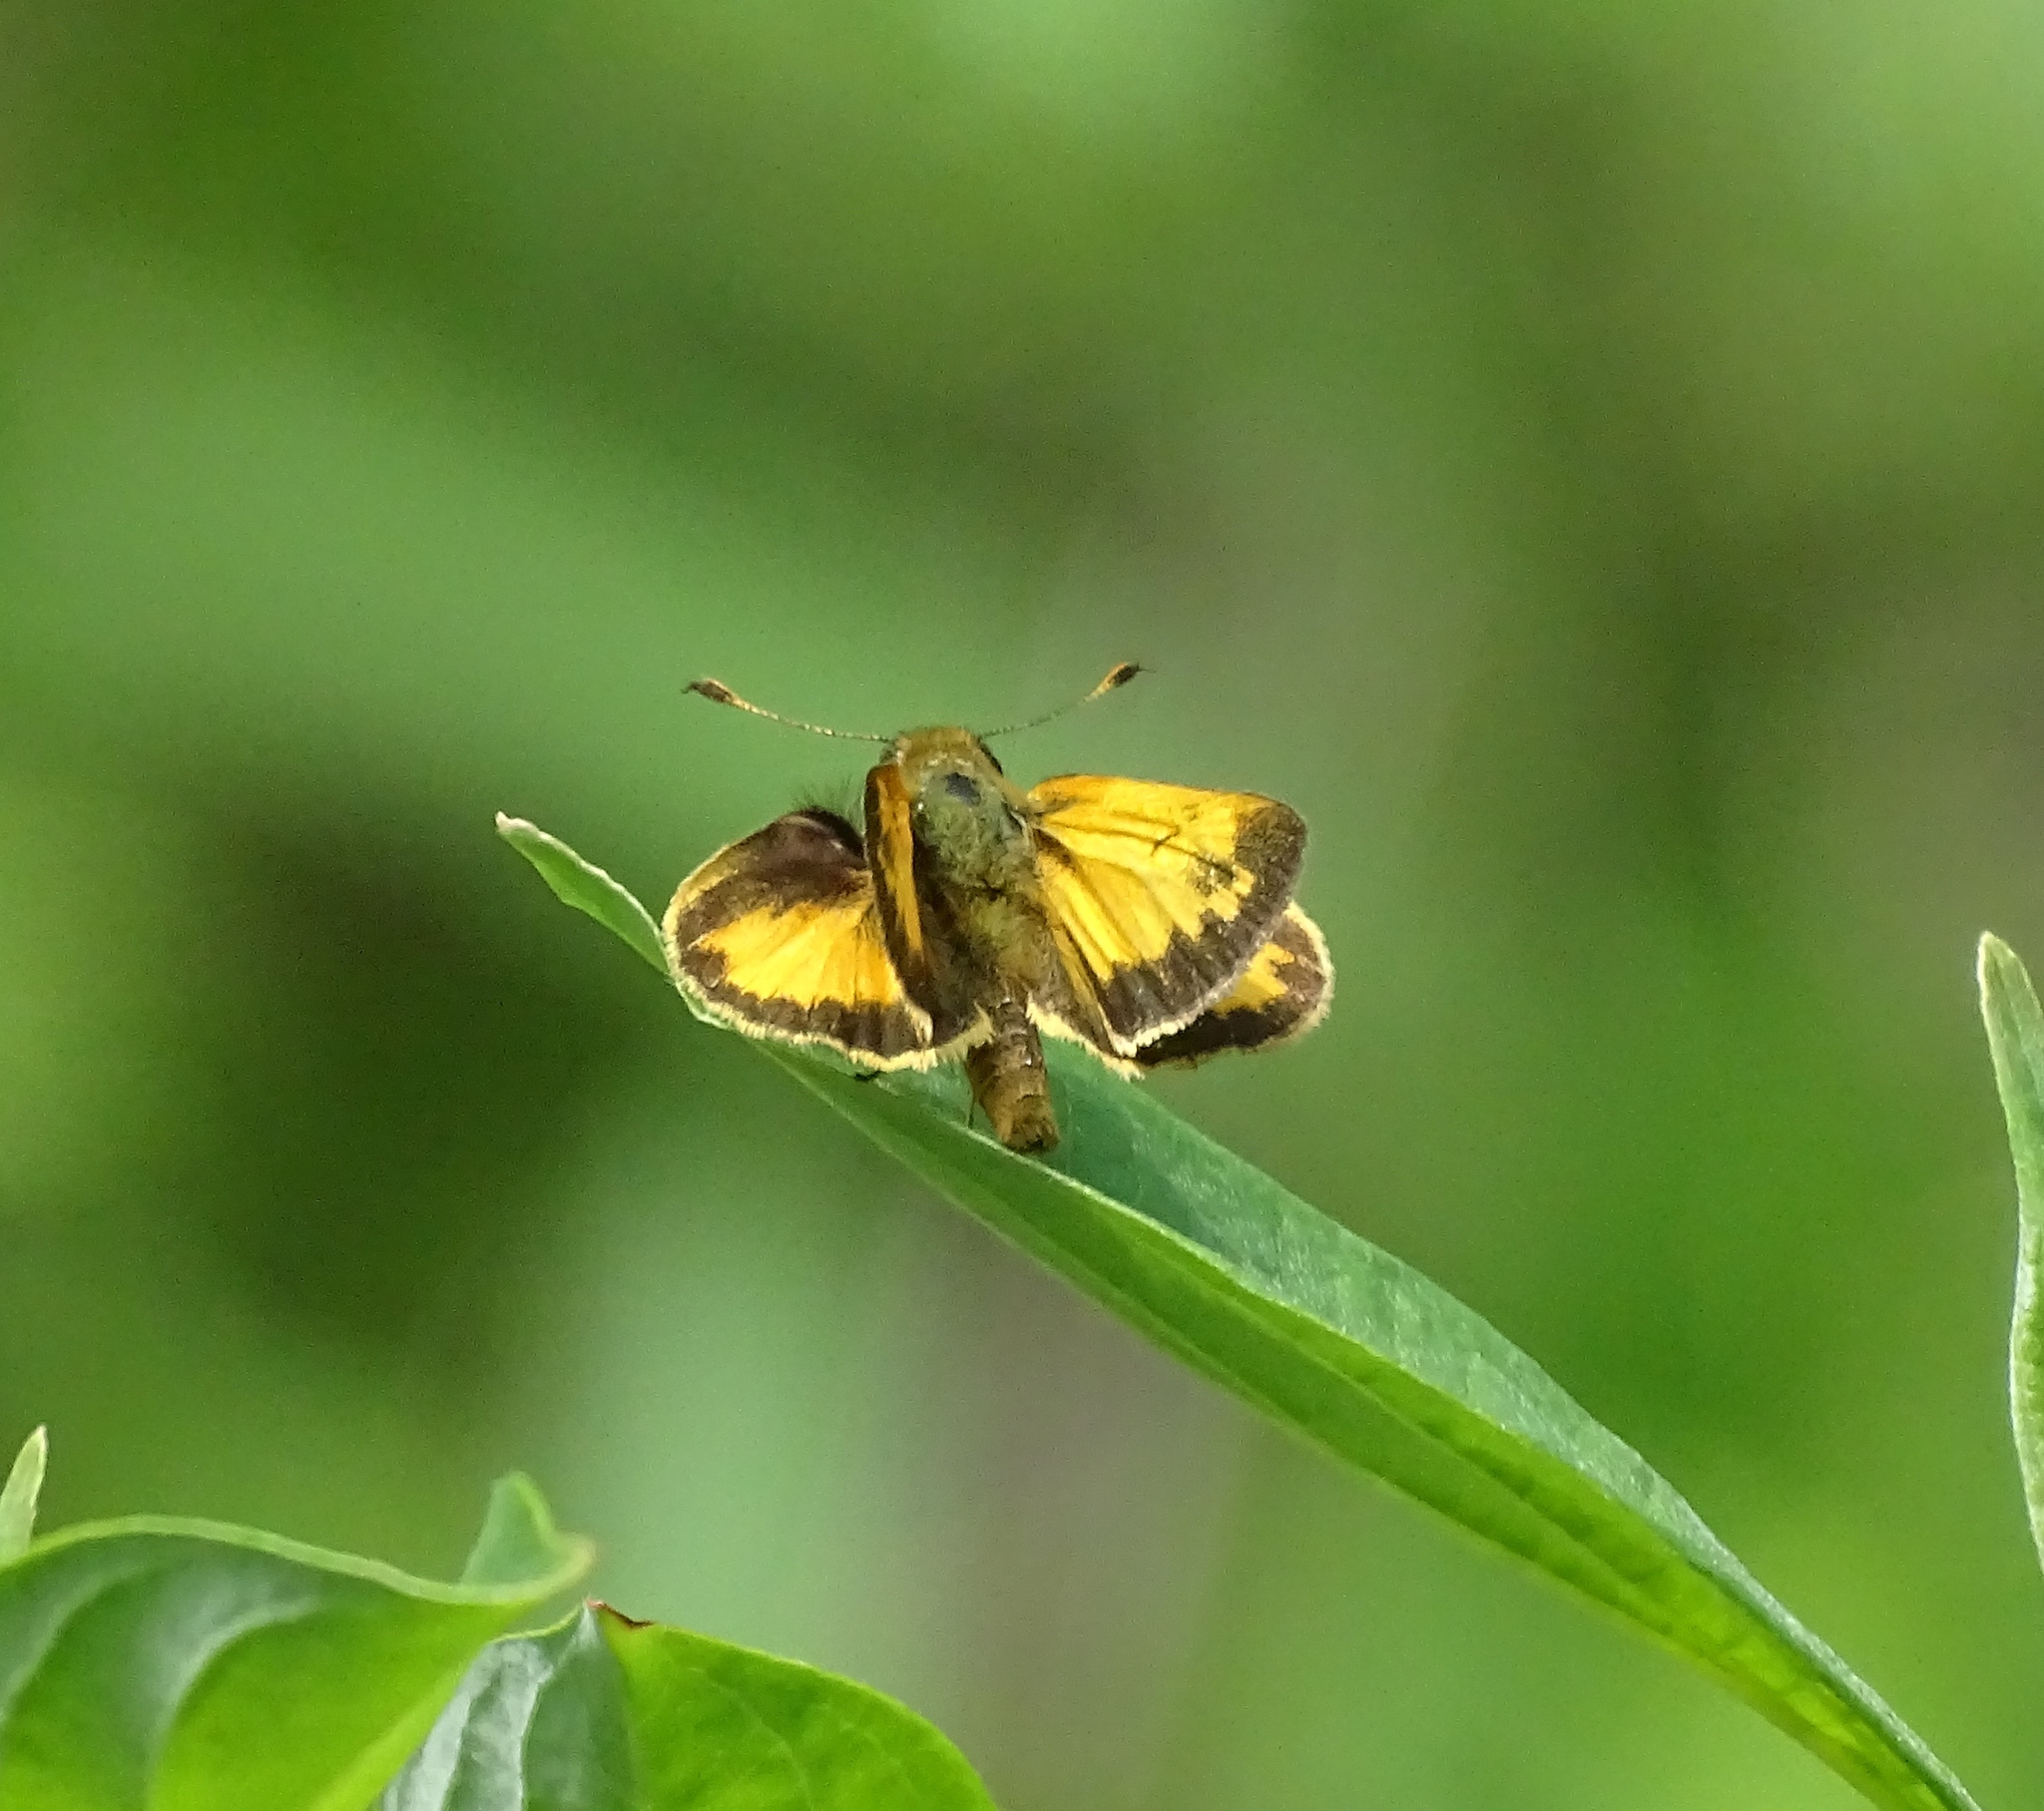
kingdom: Animalia
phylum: Arthropoda
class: Insecta
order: Lepidoptera
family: Hesperiidae
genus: Lon
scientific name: Lon zabulon
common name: Zabulon skipper
